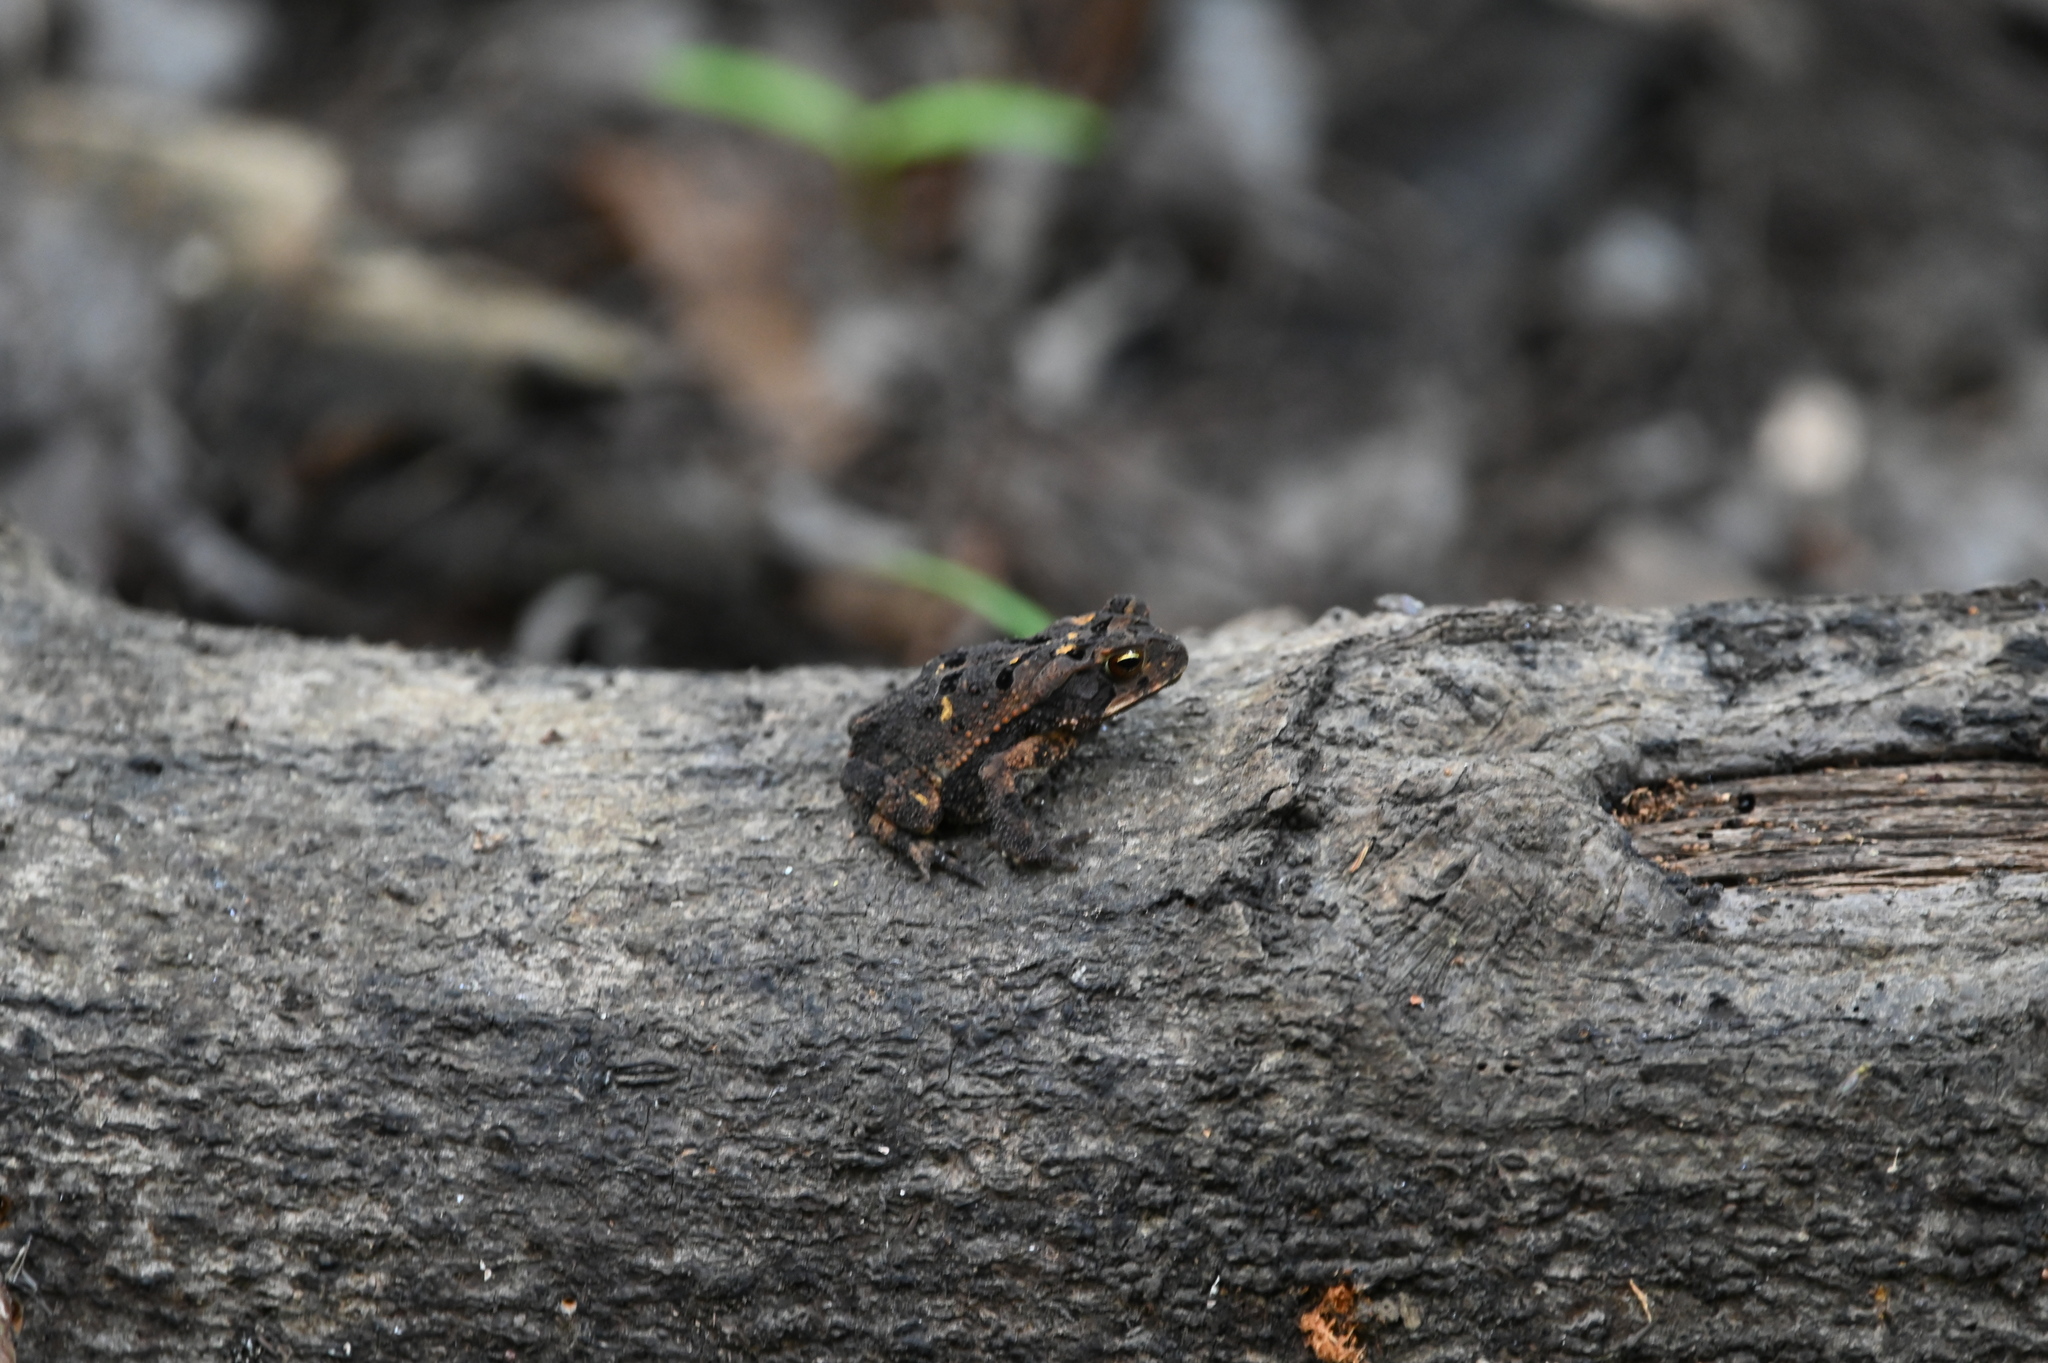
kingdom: Animalia
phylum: Chordata
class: Amphibia
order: Anura
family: Bufonidae
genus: Incilius
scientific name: Incilius nebulifer
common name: Gulf coast toad
